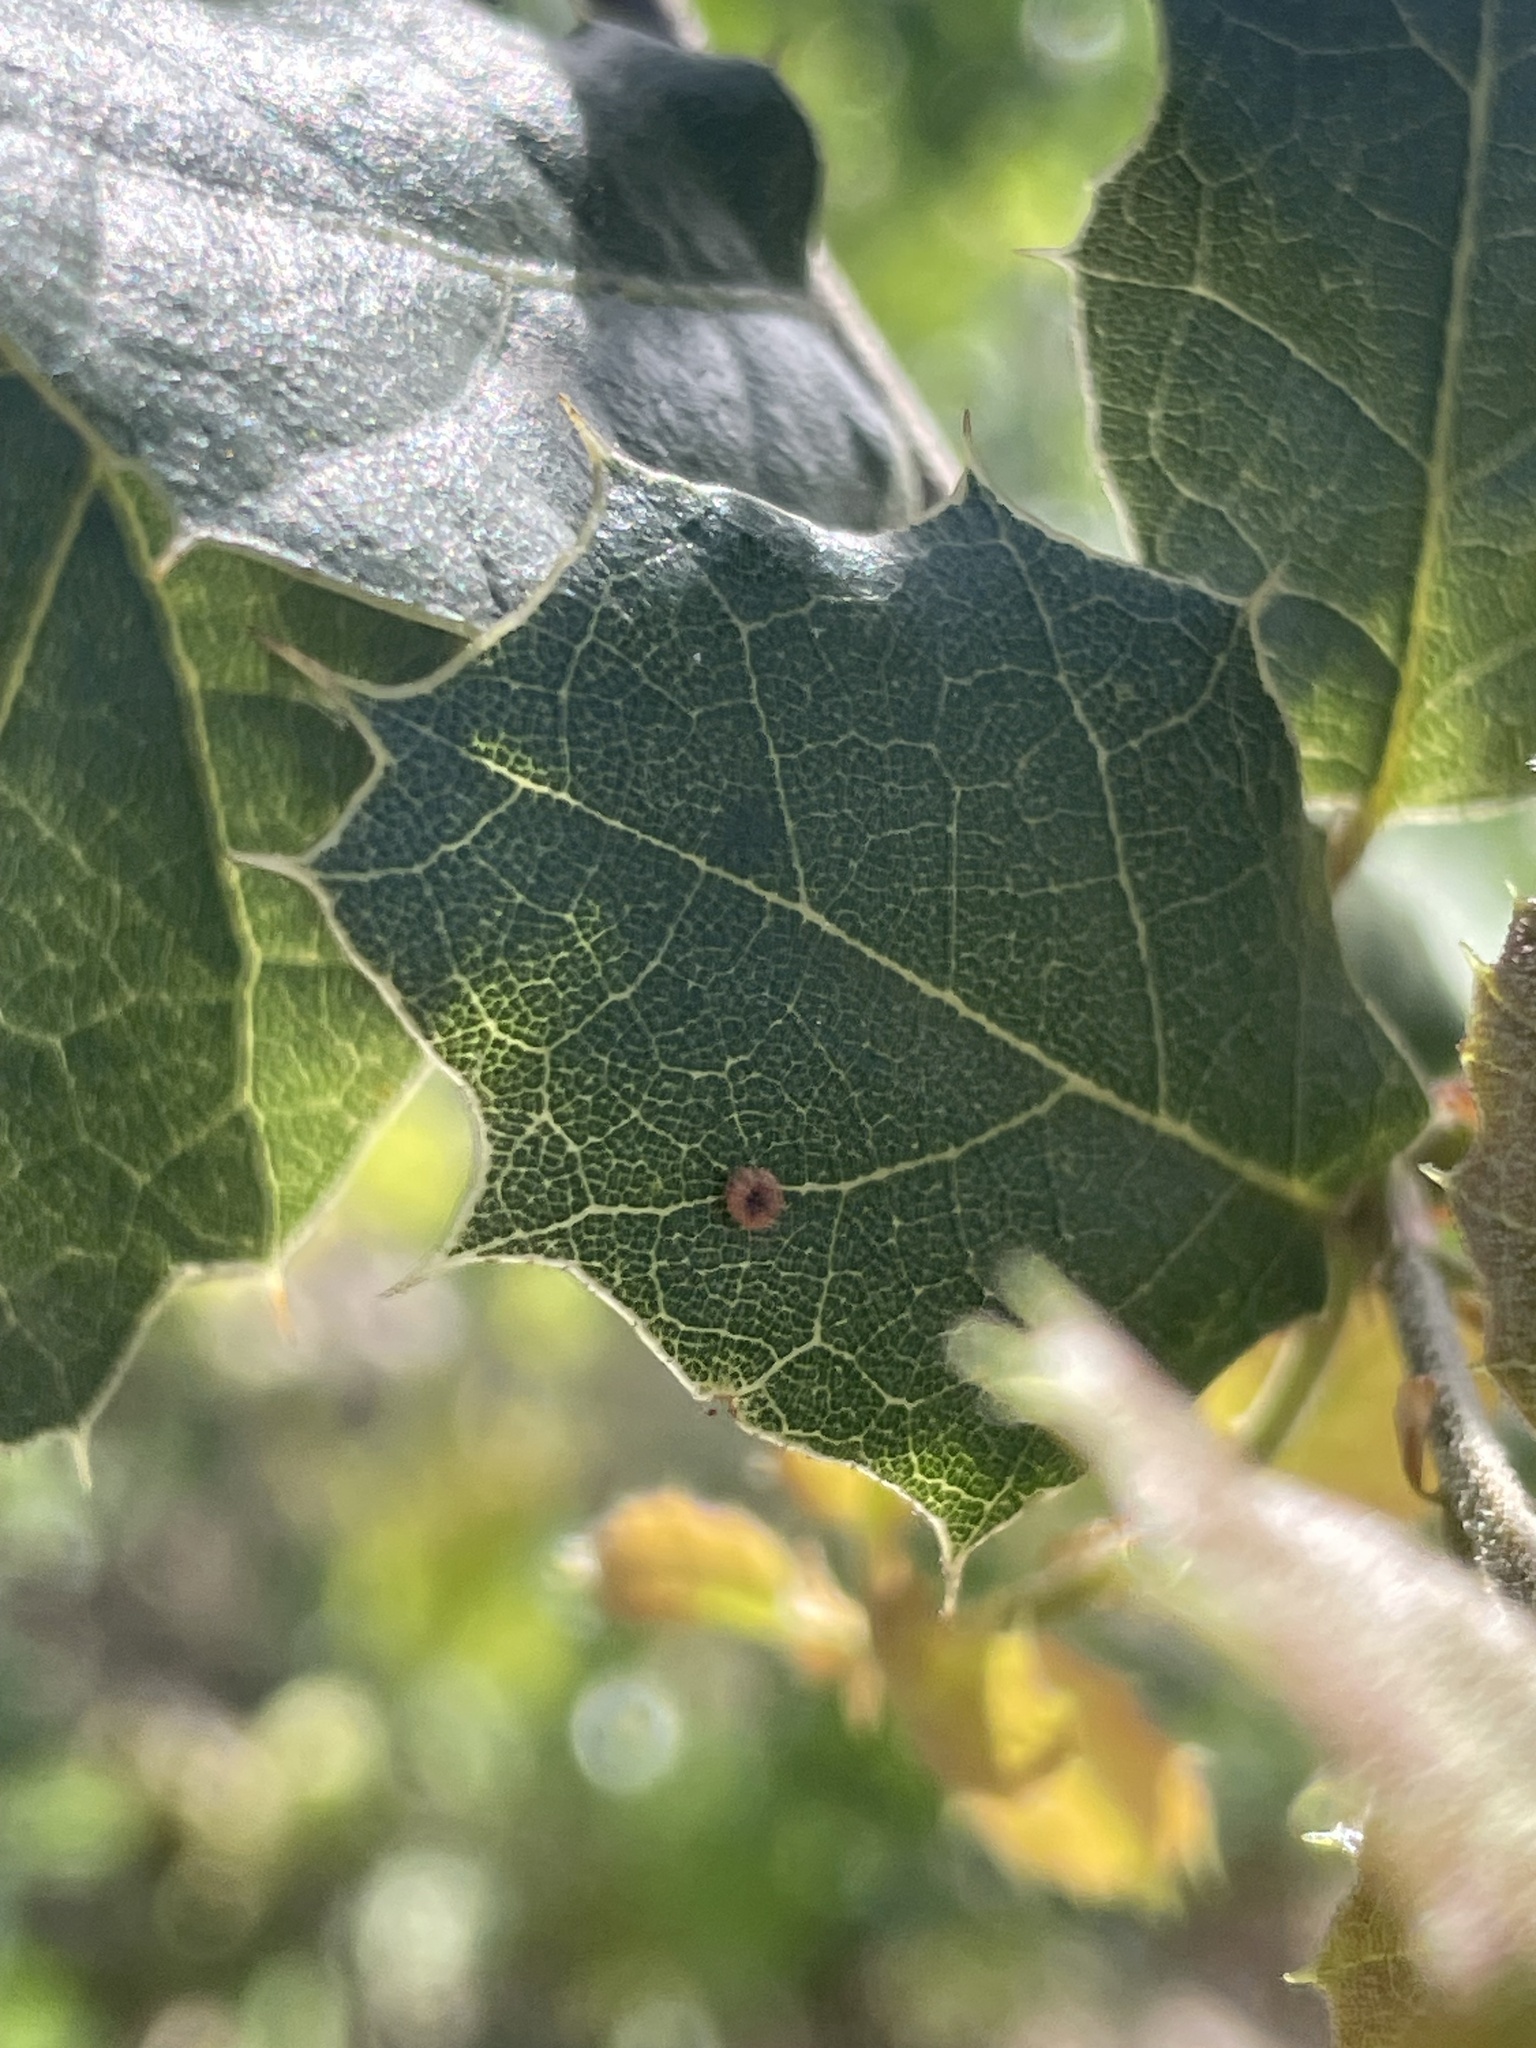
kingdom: Animalia
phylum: Arthropoda
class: Insecta
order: Hymenoptera
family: Cynipidae
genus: Dryocosmus
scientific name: Dryocosmus
